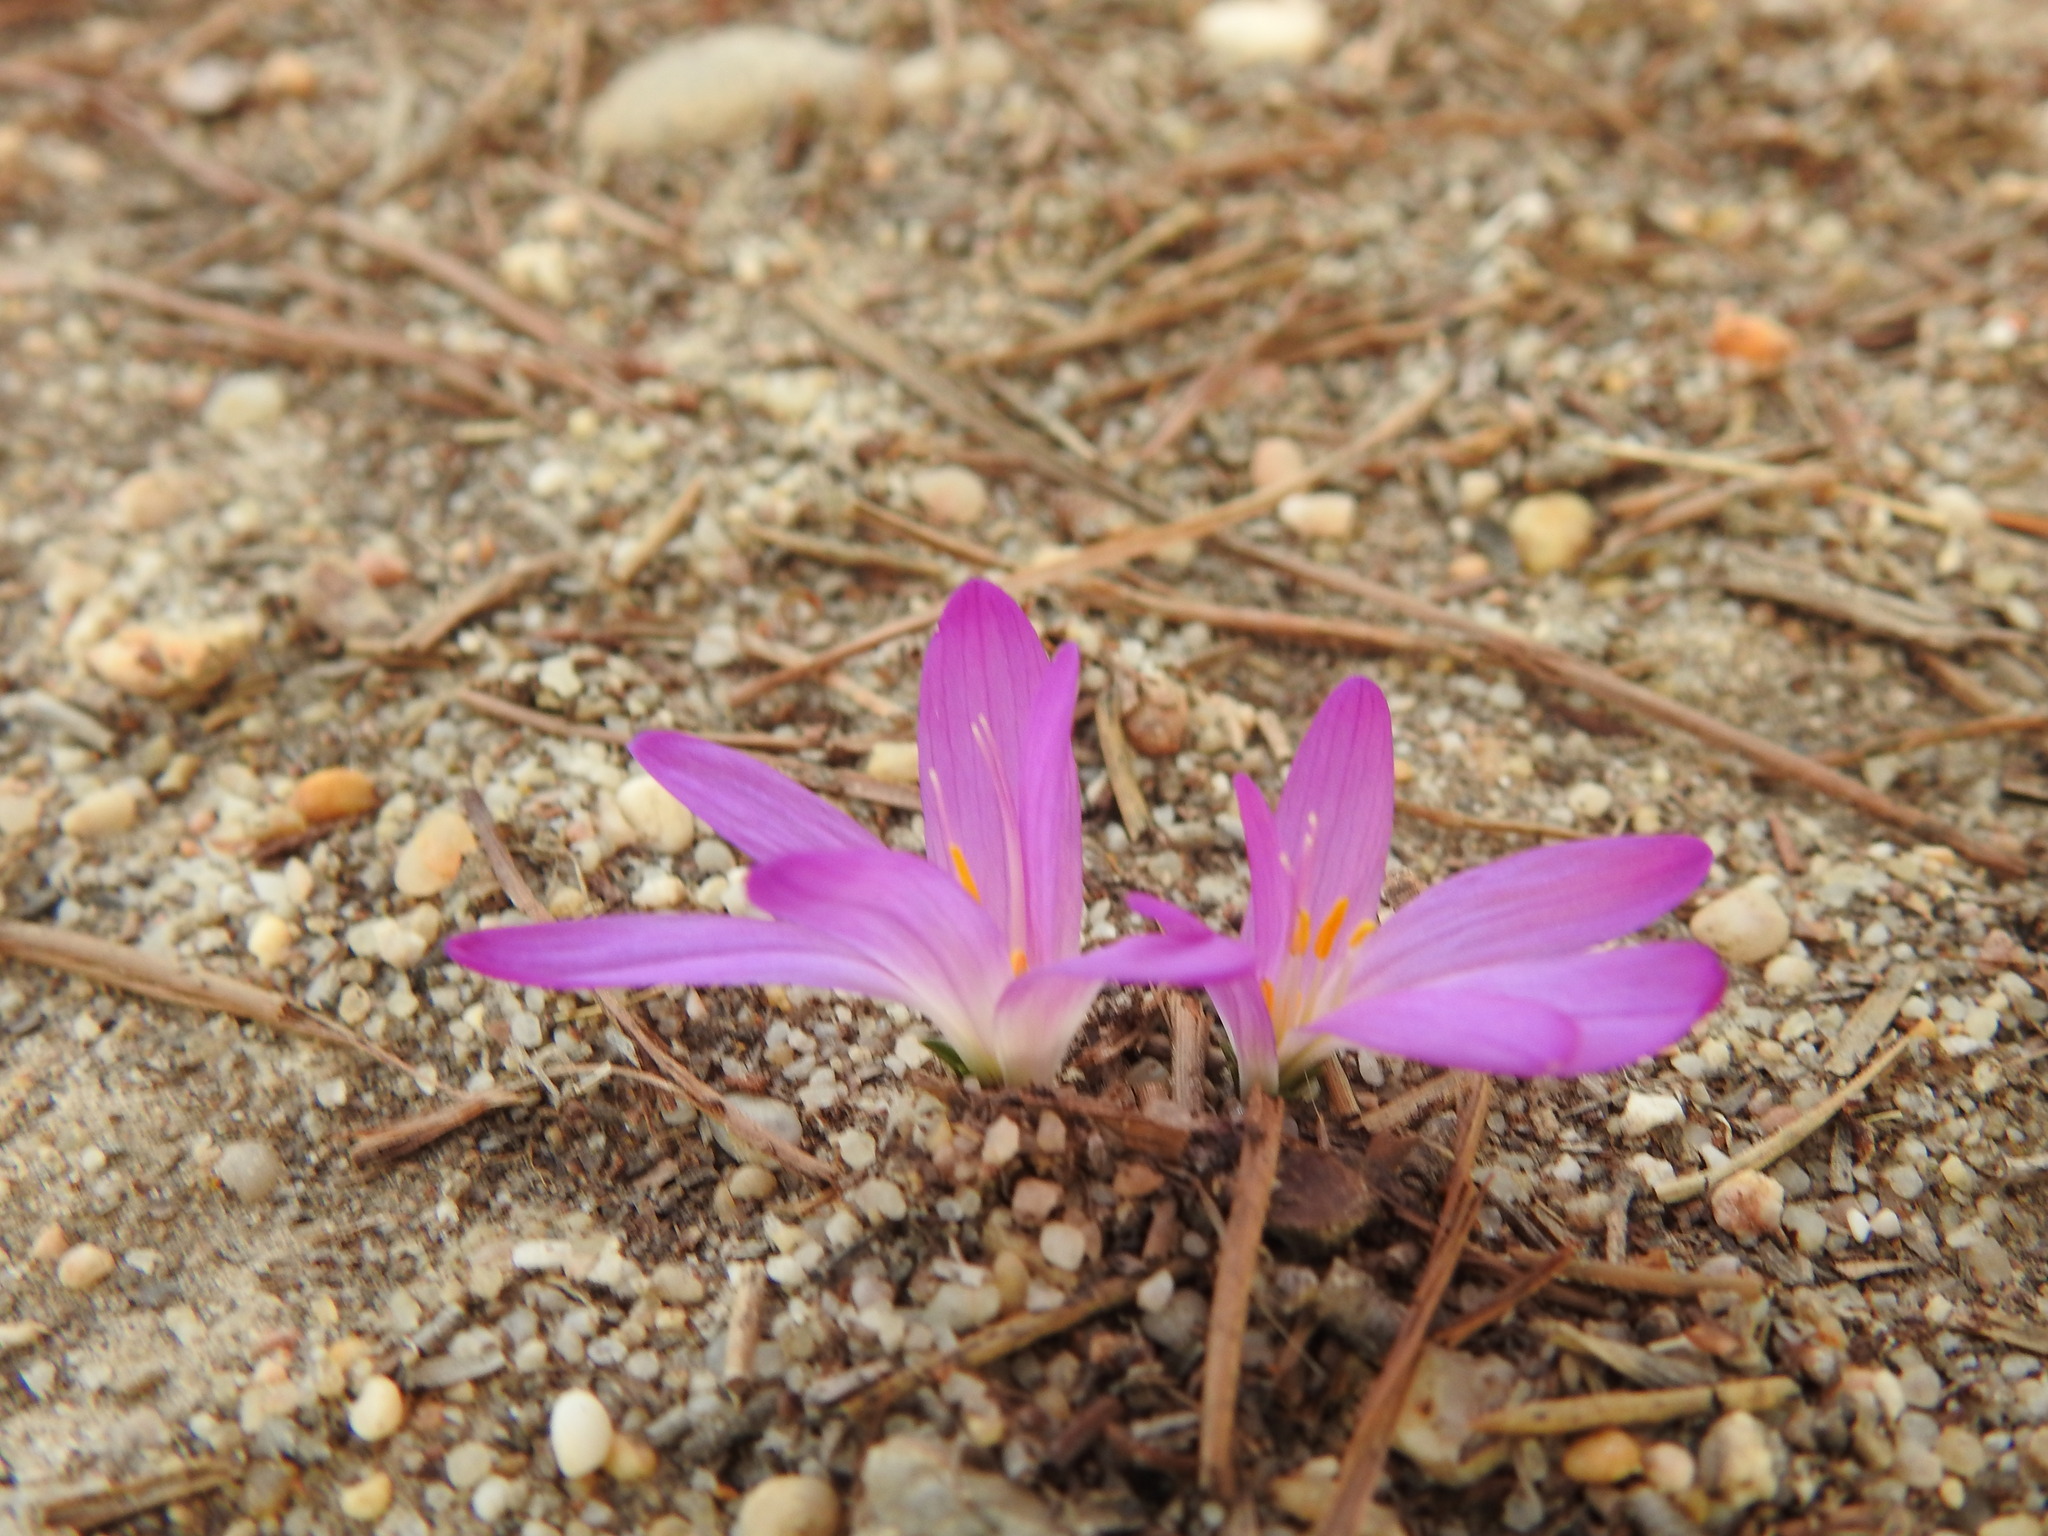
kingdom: Plantae
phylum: Tracheophyta
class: Liliopsida
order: Liliales
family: Colchicaceae
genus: Colchicum
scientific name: Colchicum filifolium
